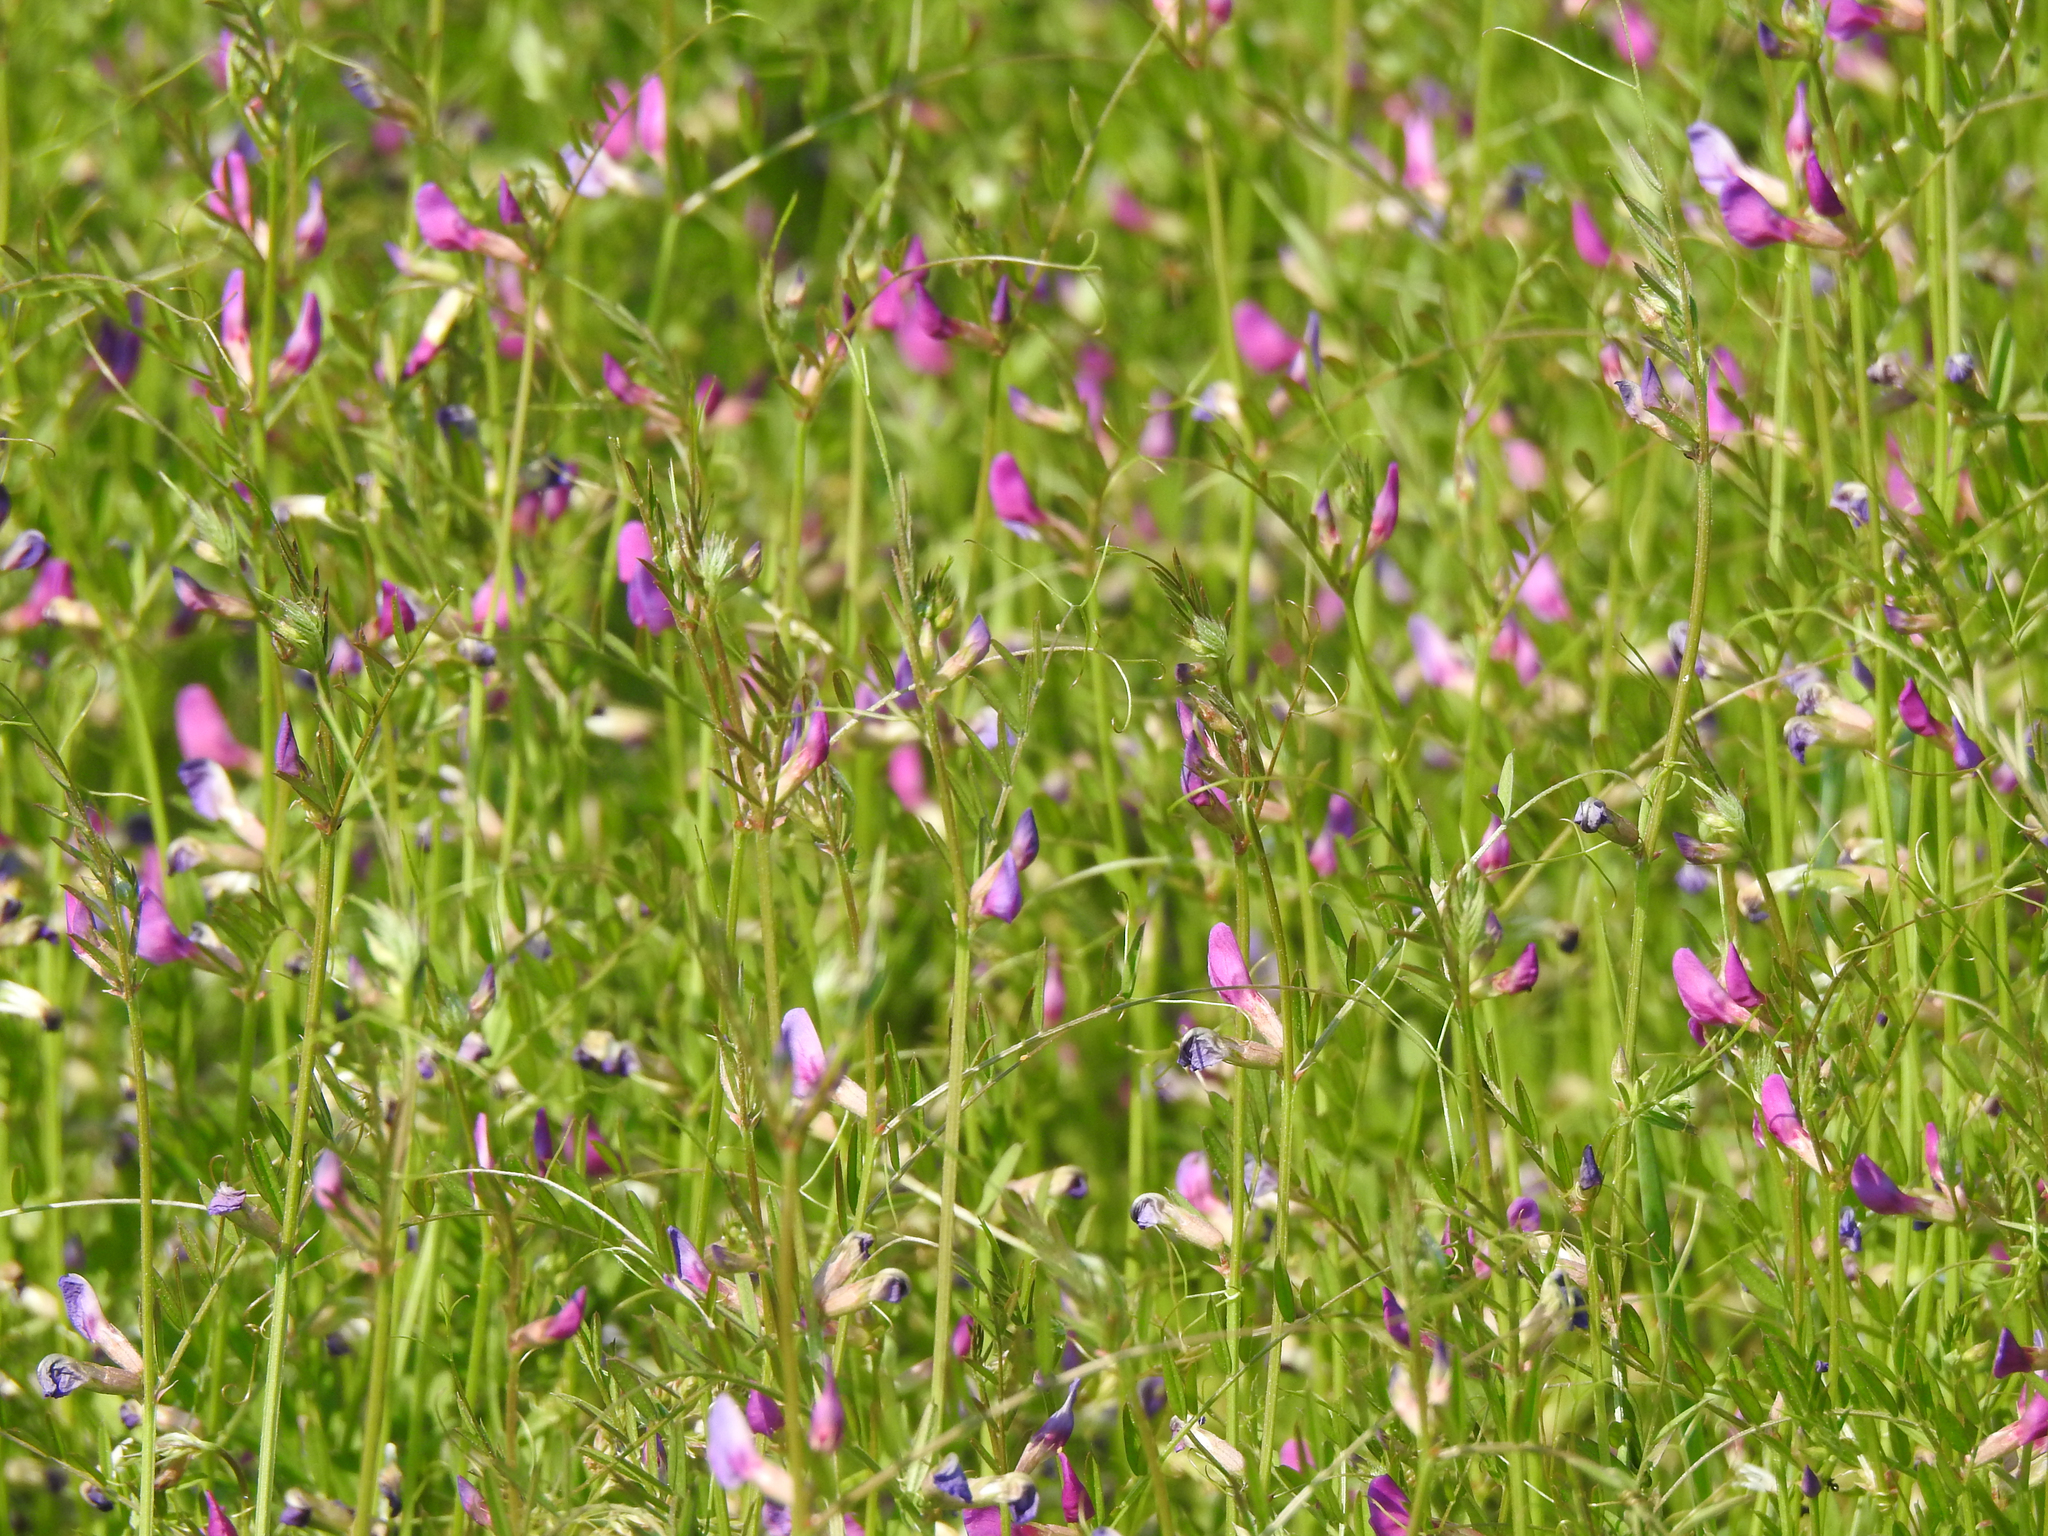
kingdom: Plantae
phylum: Tracheophyta
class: Magnoliopsida
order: Fabales
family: Fabaceae
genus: Vicia
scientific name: Vicia sativa
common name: Garden vetch
